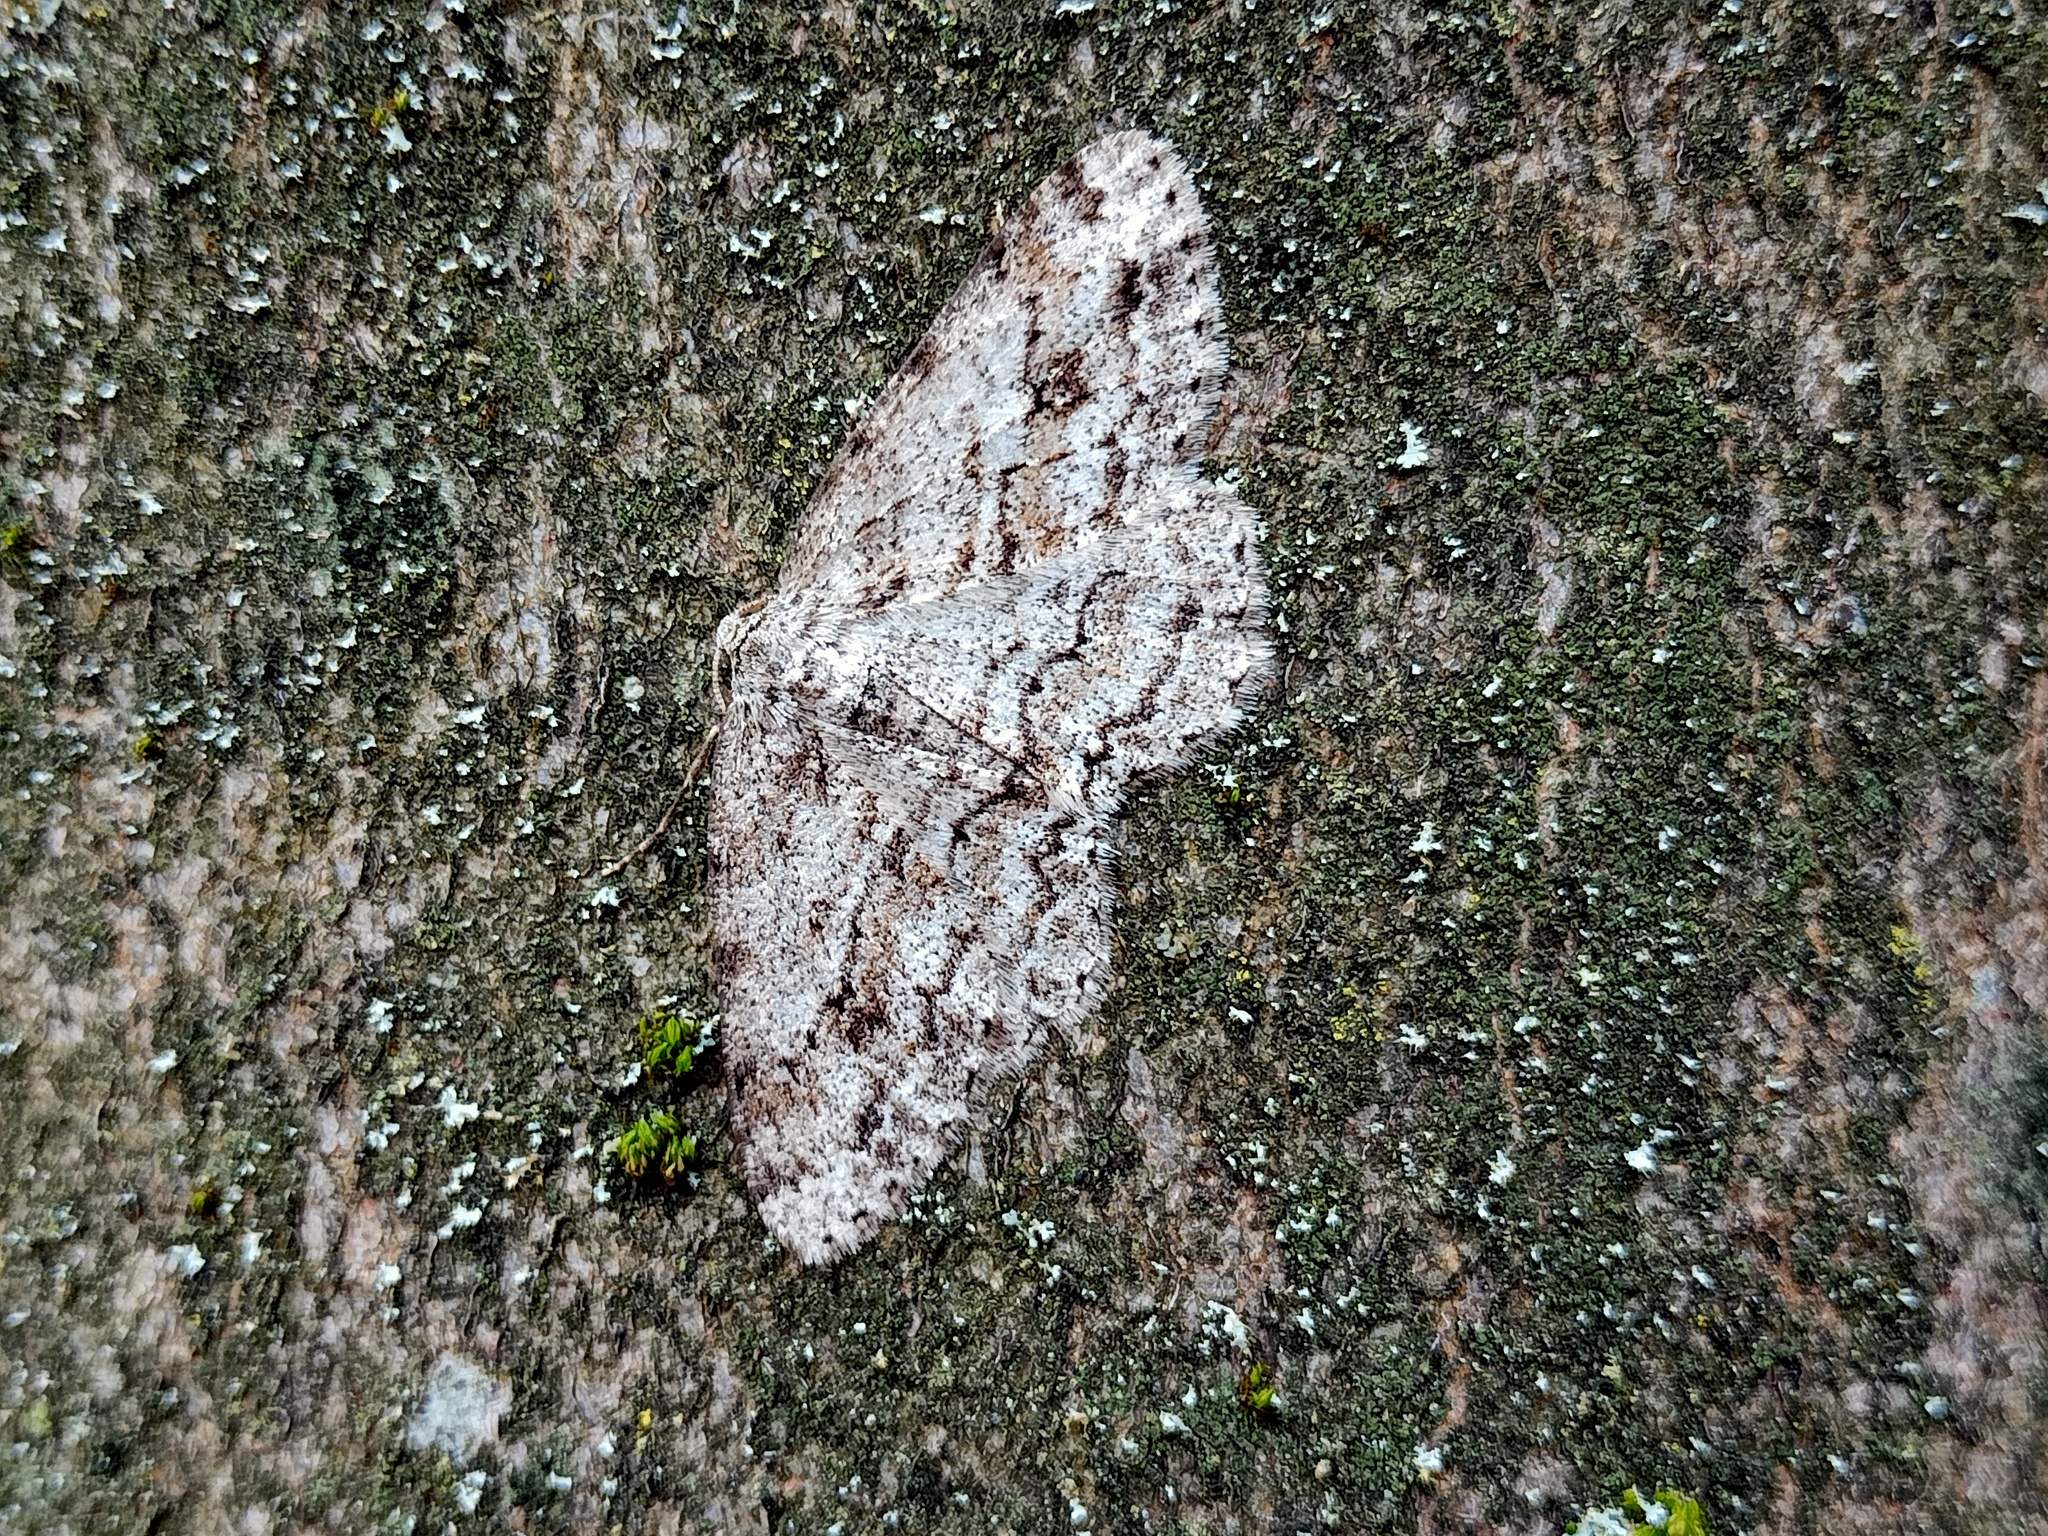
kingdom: Animalia
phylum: Arthropoda
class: Insecta
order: Lepidoptera
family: Geometridae
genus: Ectropis
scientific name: Ectropis crepuscularia
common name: Engrailed
